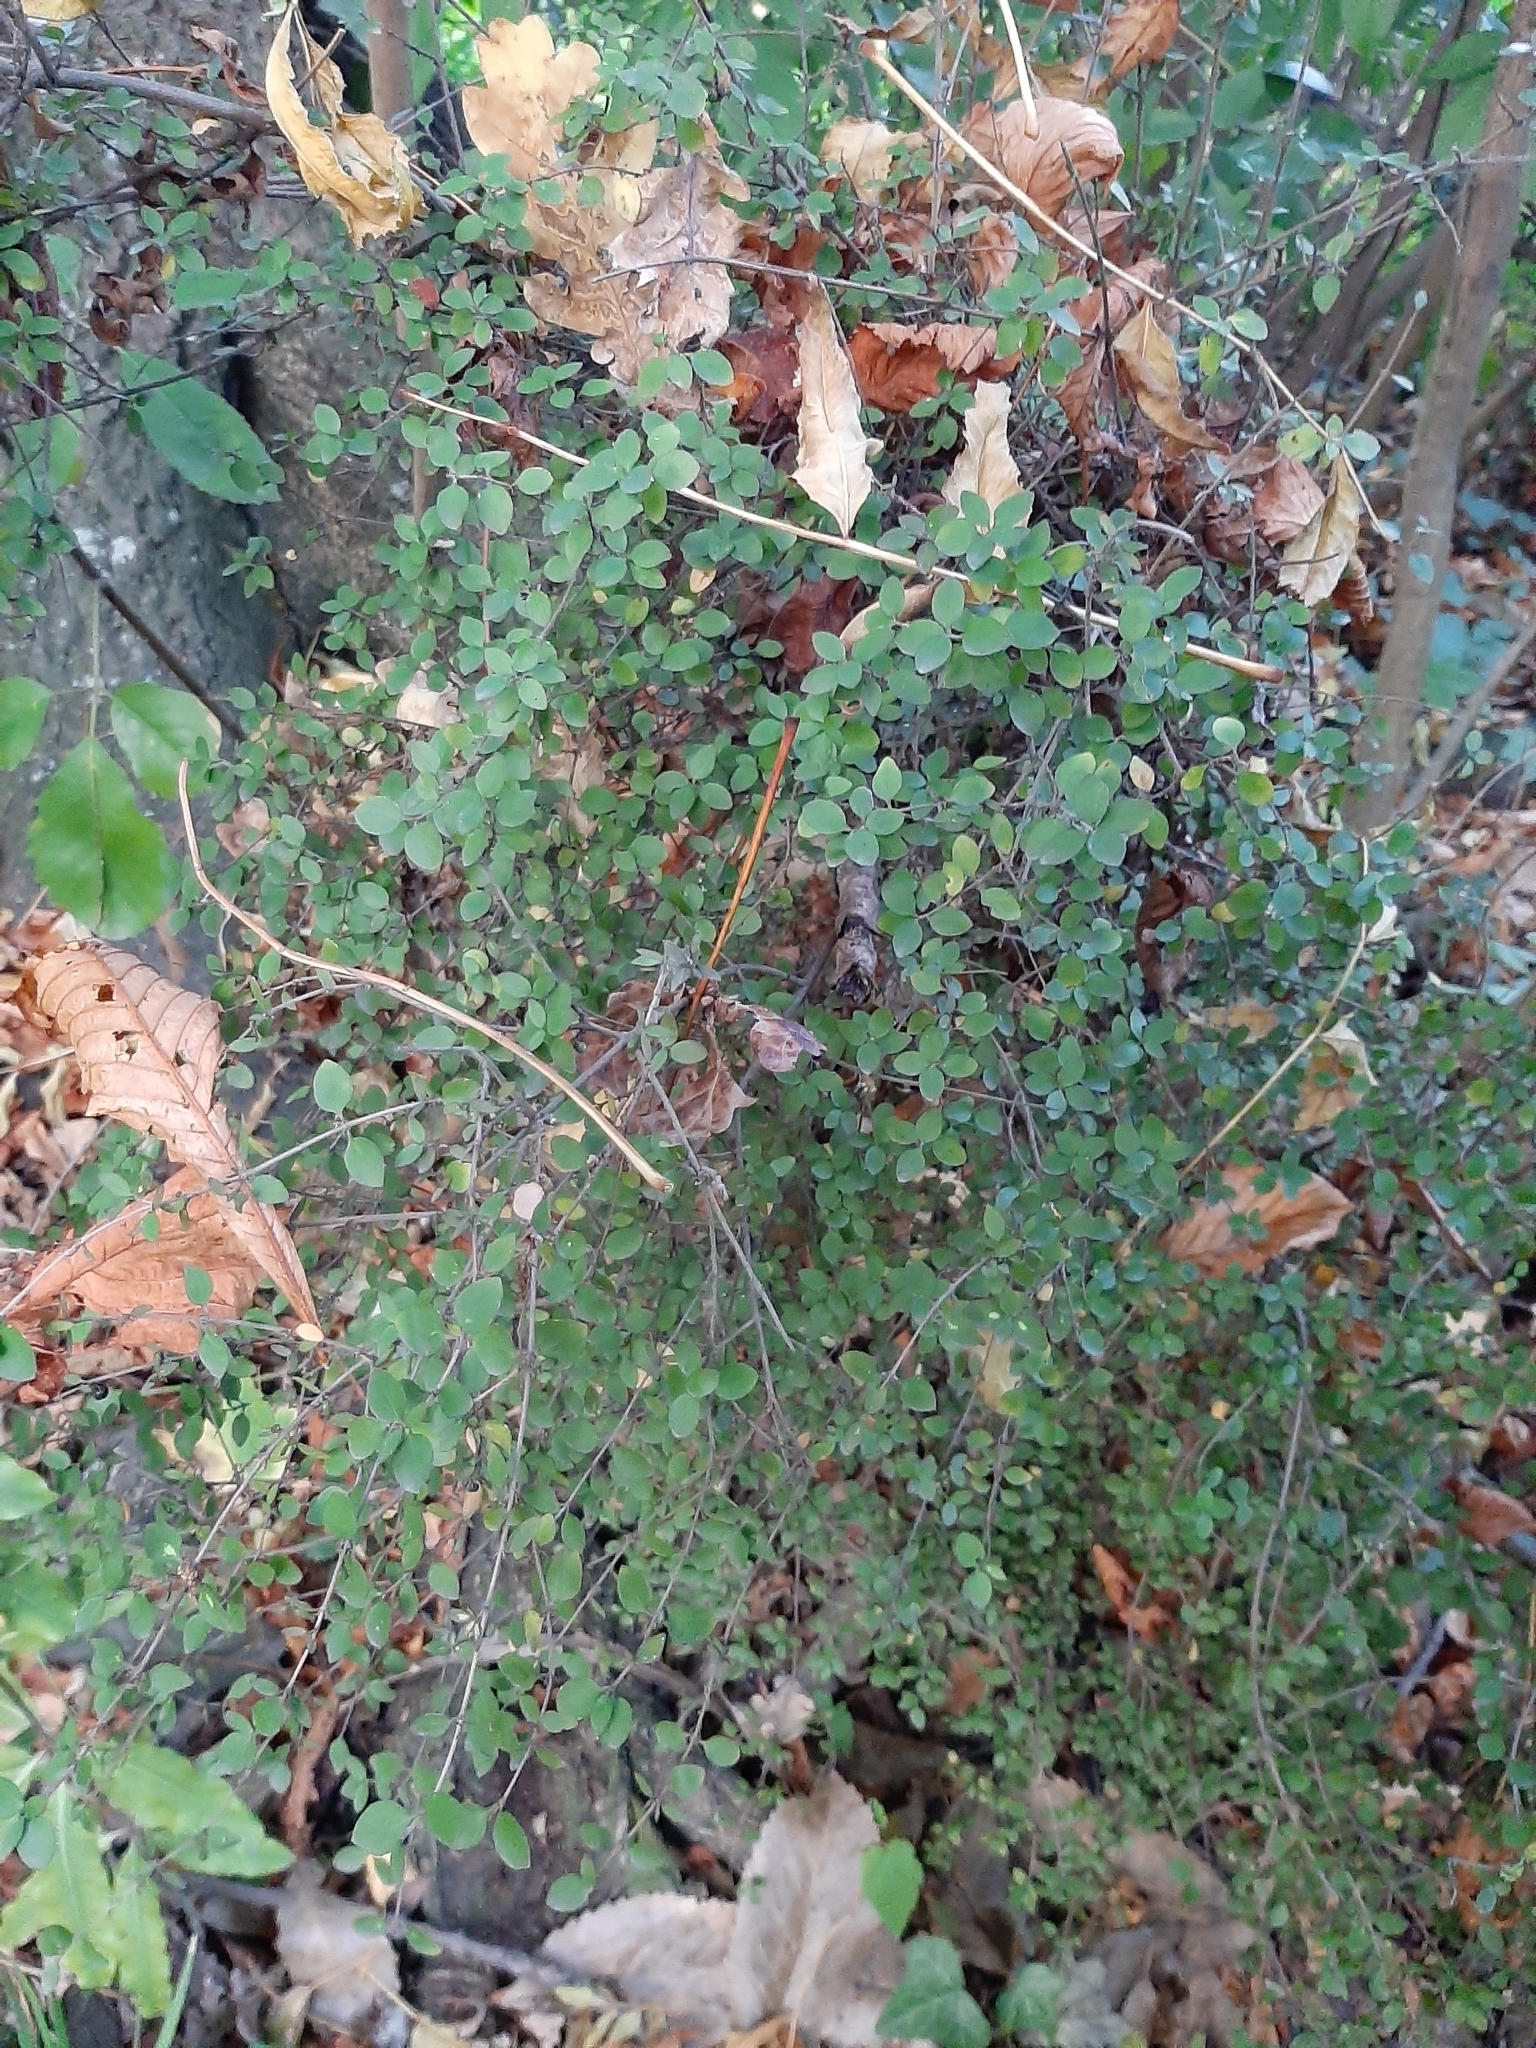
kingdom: Plantae
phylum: Tracheophyta
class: Magnoliopsida
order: Gentianales
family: Rubiaceae
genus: Coprosma
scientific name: Coprosma rhamnoides
